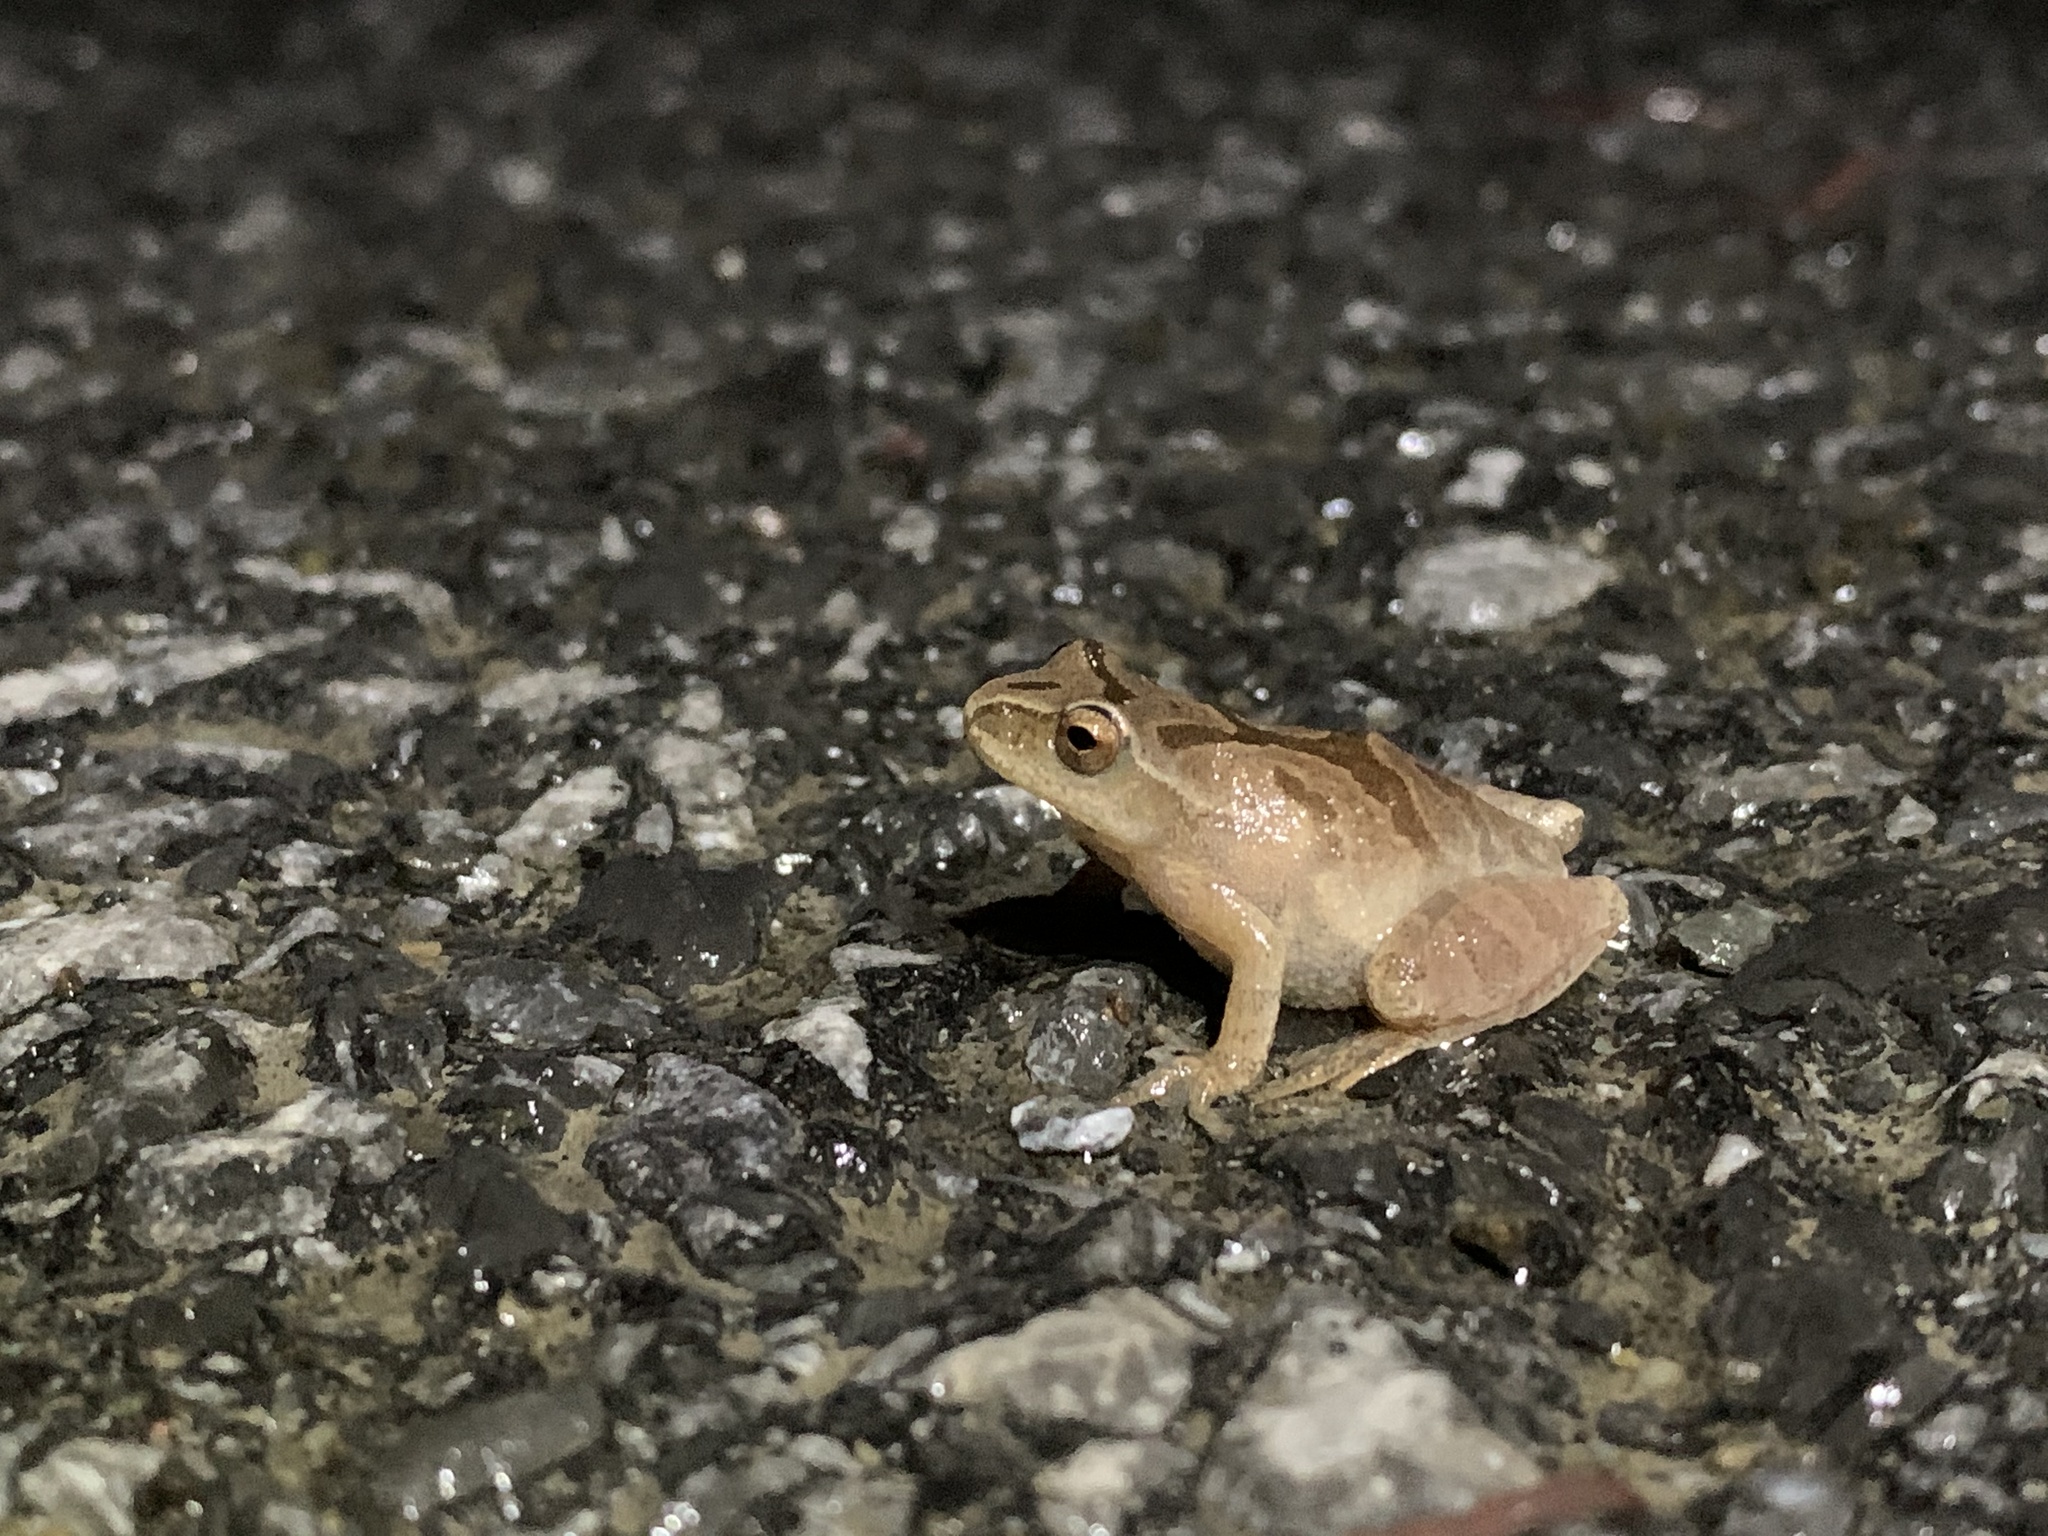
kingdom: Animalia
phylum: Chordata
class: Amphibia
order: Anura
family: Hylidae
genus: Pseudacris
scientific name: Pseudacris crucifer
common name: Spring peeper
